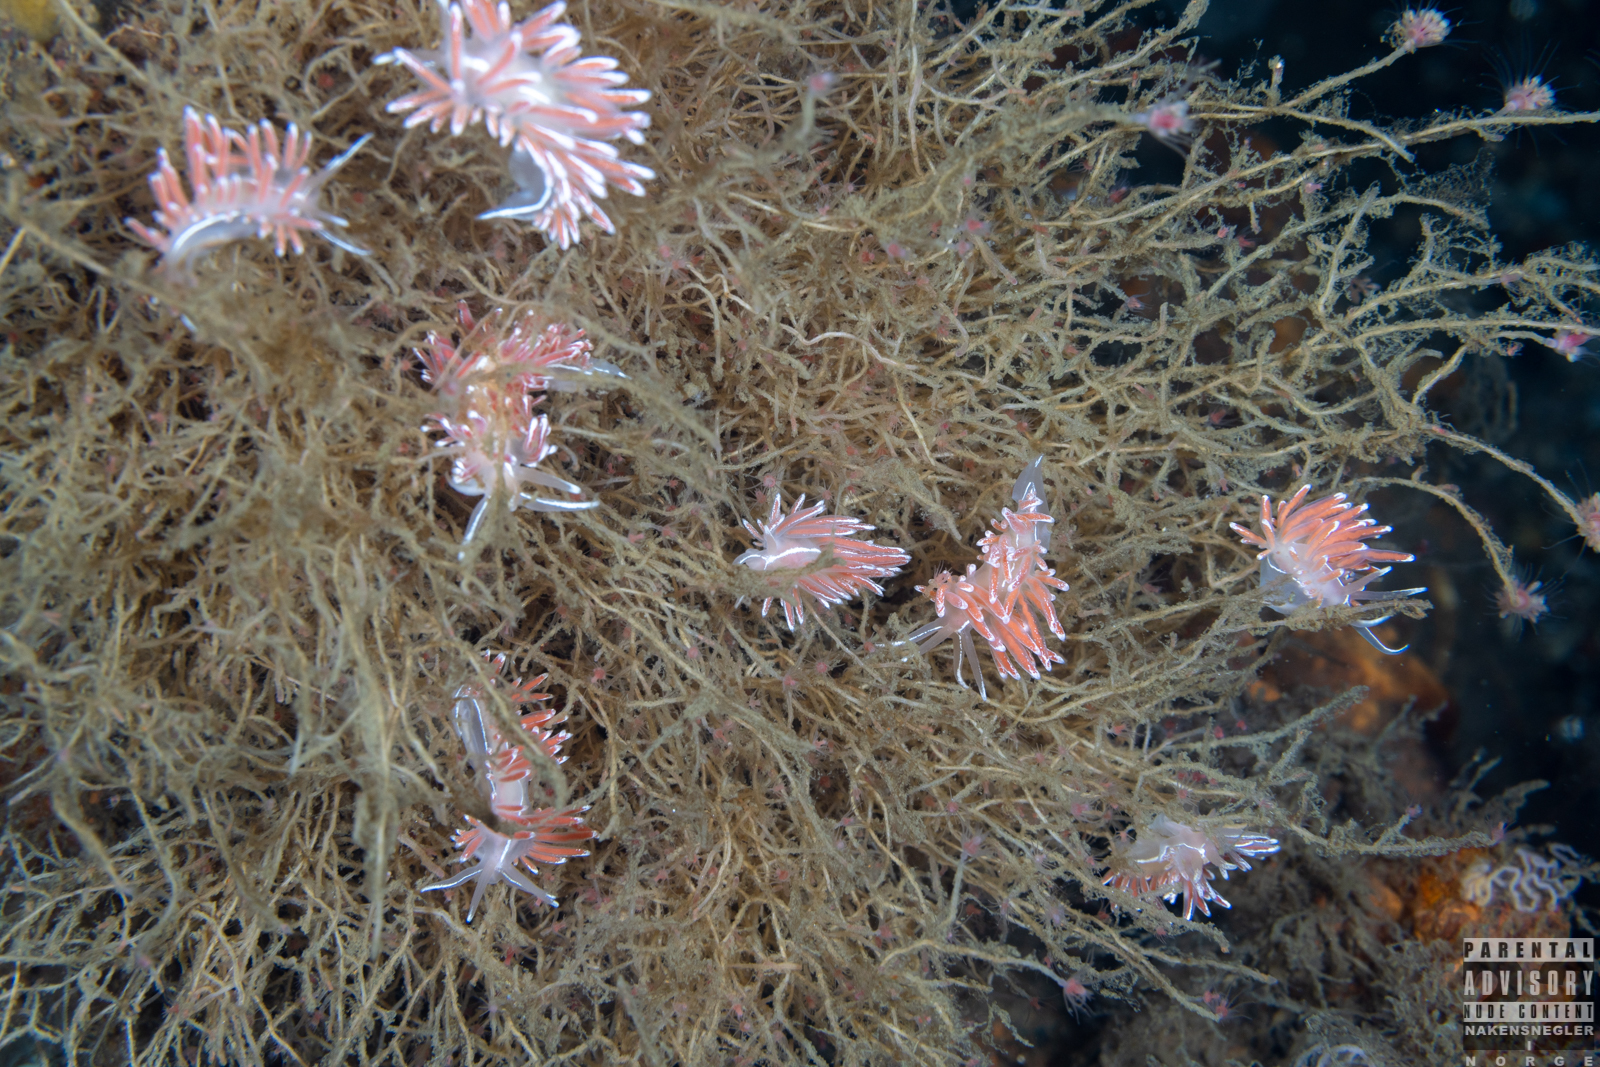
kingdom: Animalia
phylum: Mollusca
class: Gastropoda
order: Nudibranchia
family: Coryphellidae
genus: Coryphella
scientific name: Coryphella lineata
